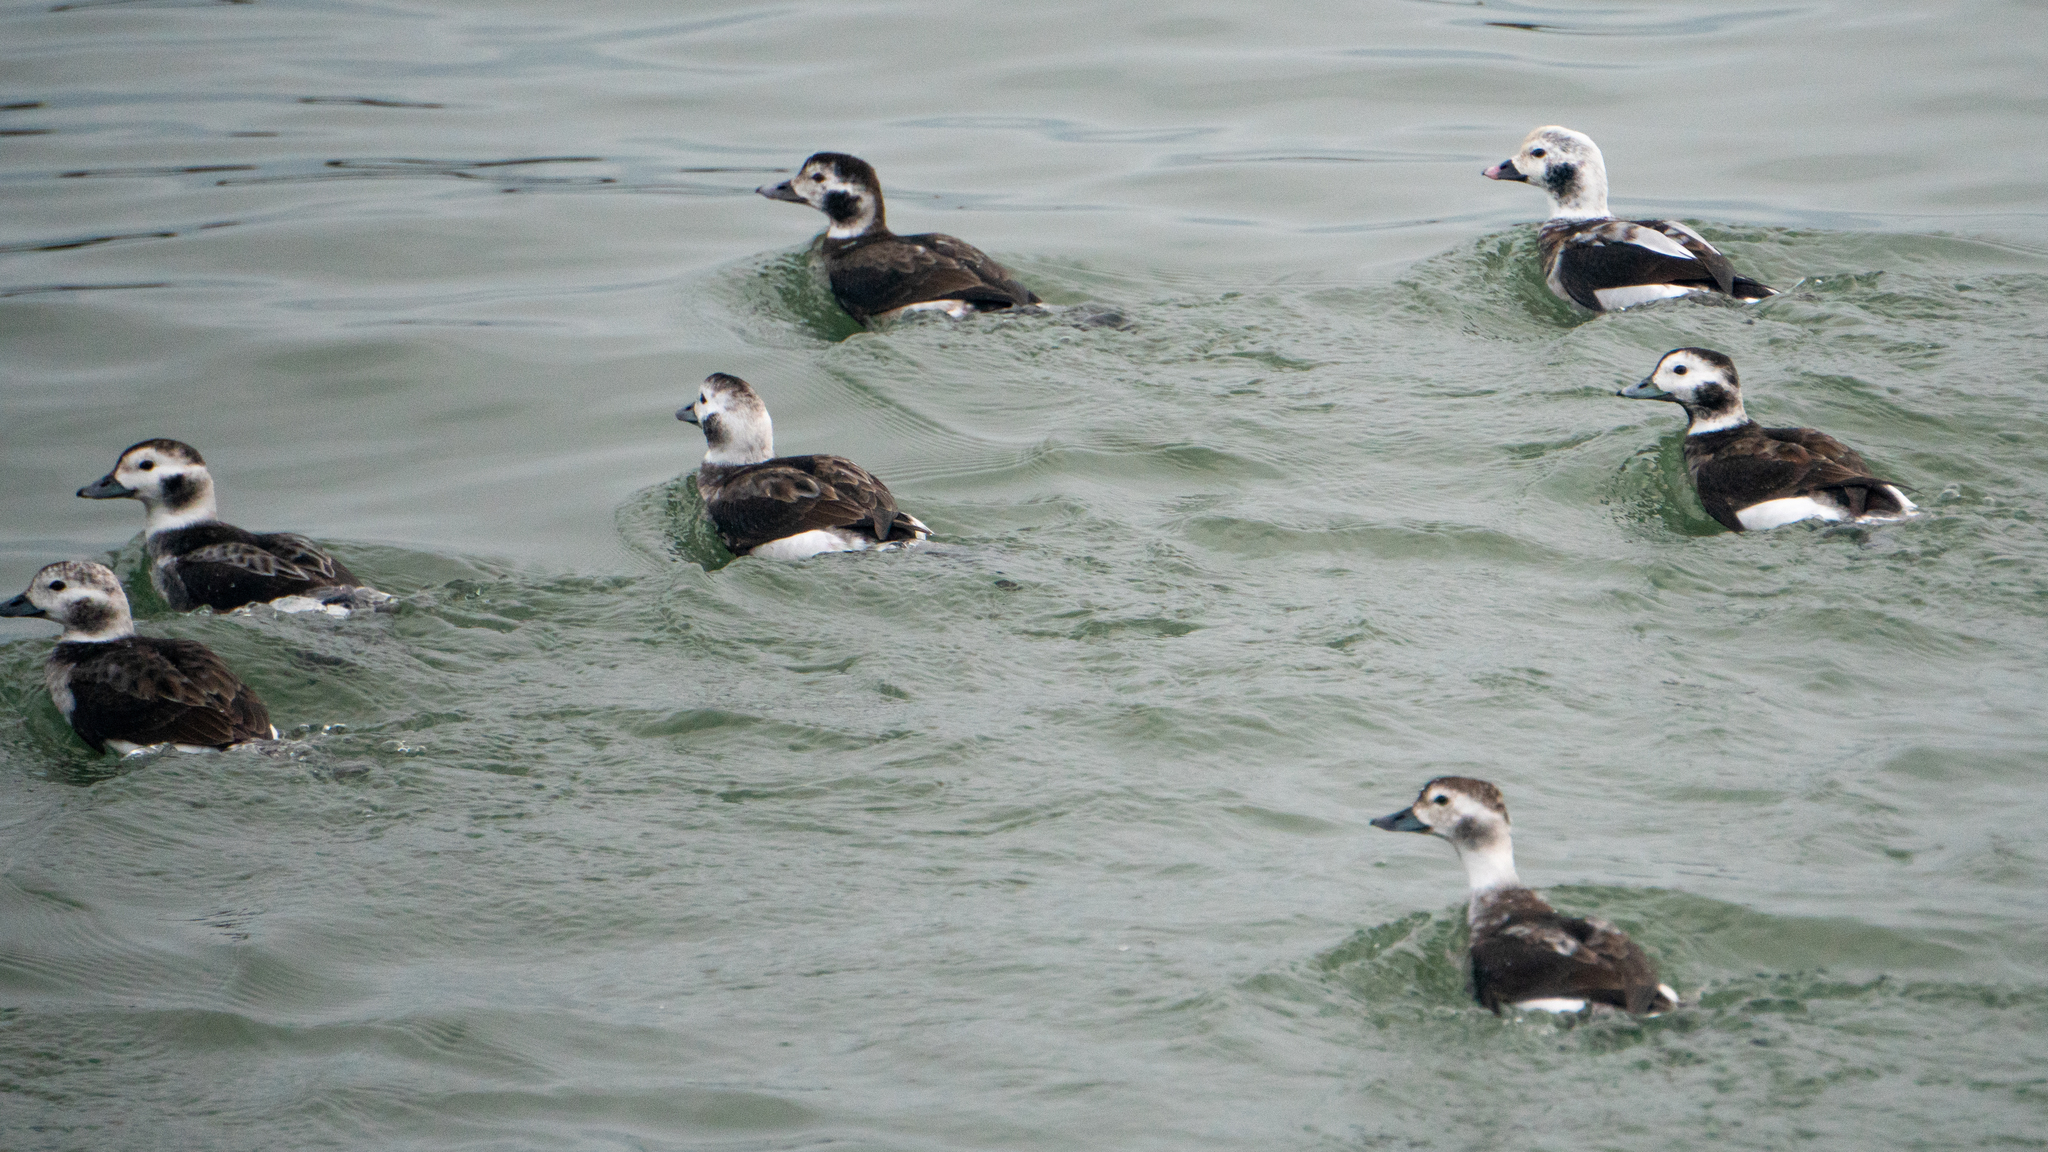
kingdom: Animalia
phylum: Chordata
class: Aves
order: Anseriformes
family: Anatidae
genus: Clangula
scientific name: Clangula hyemalis
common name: Long-tailed duck
